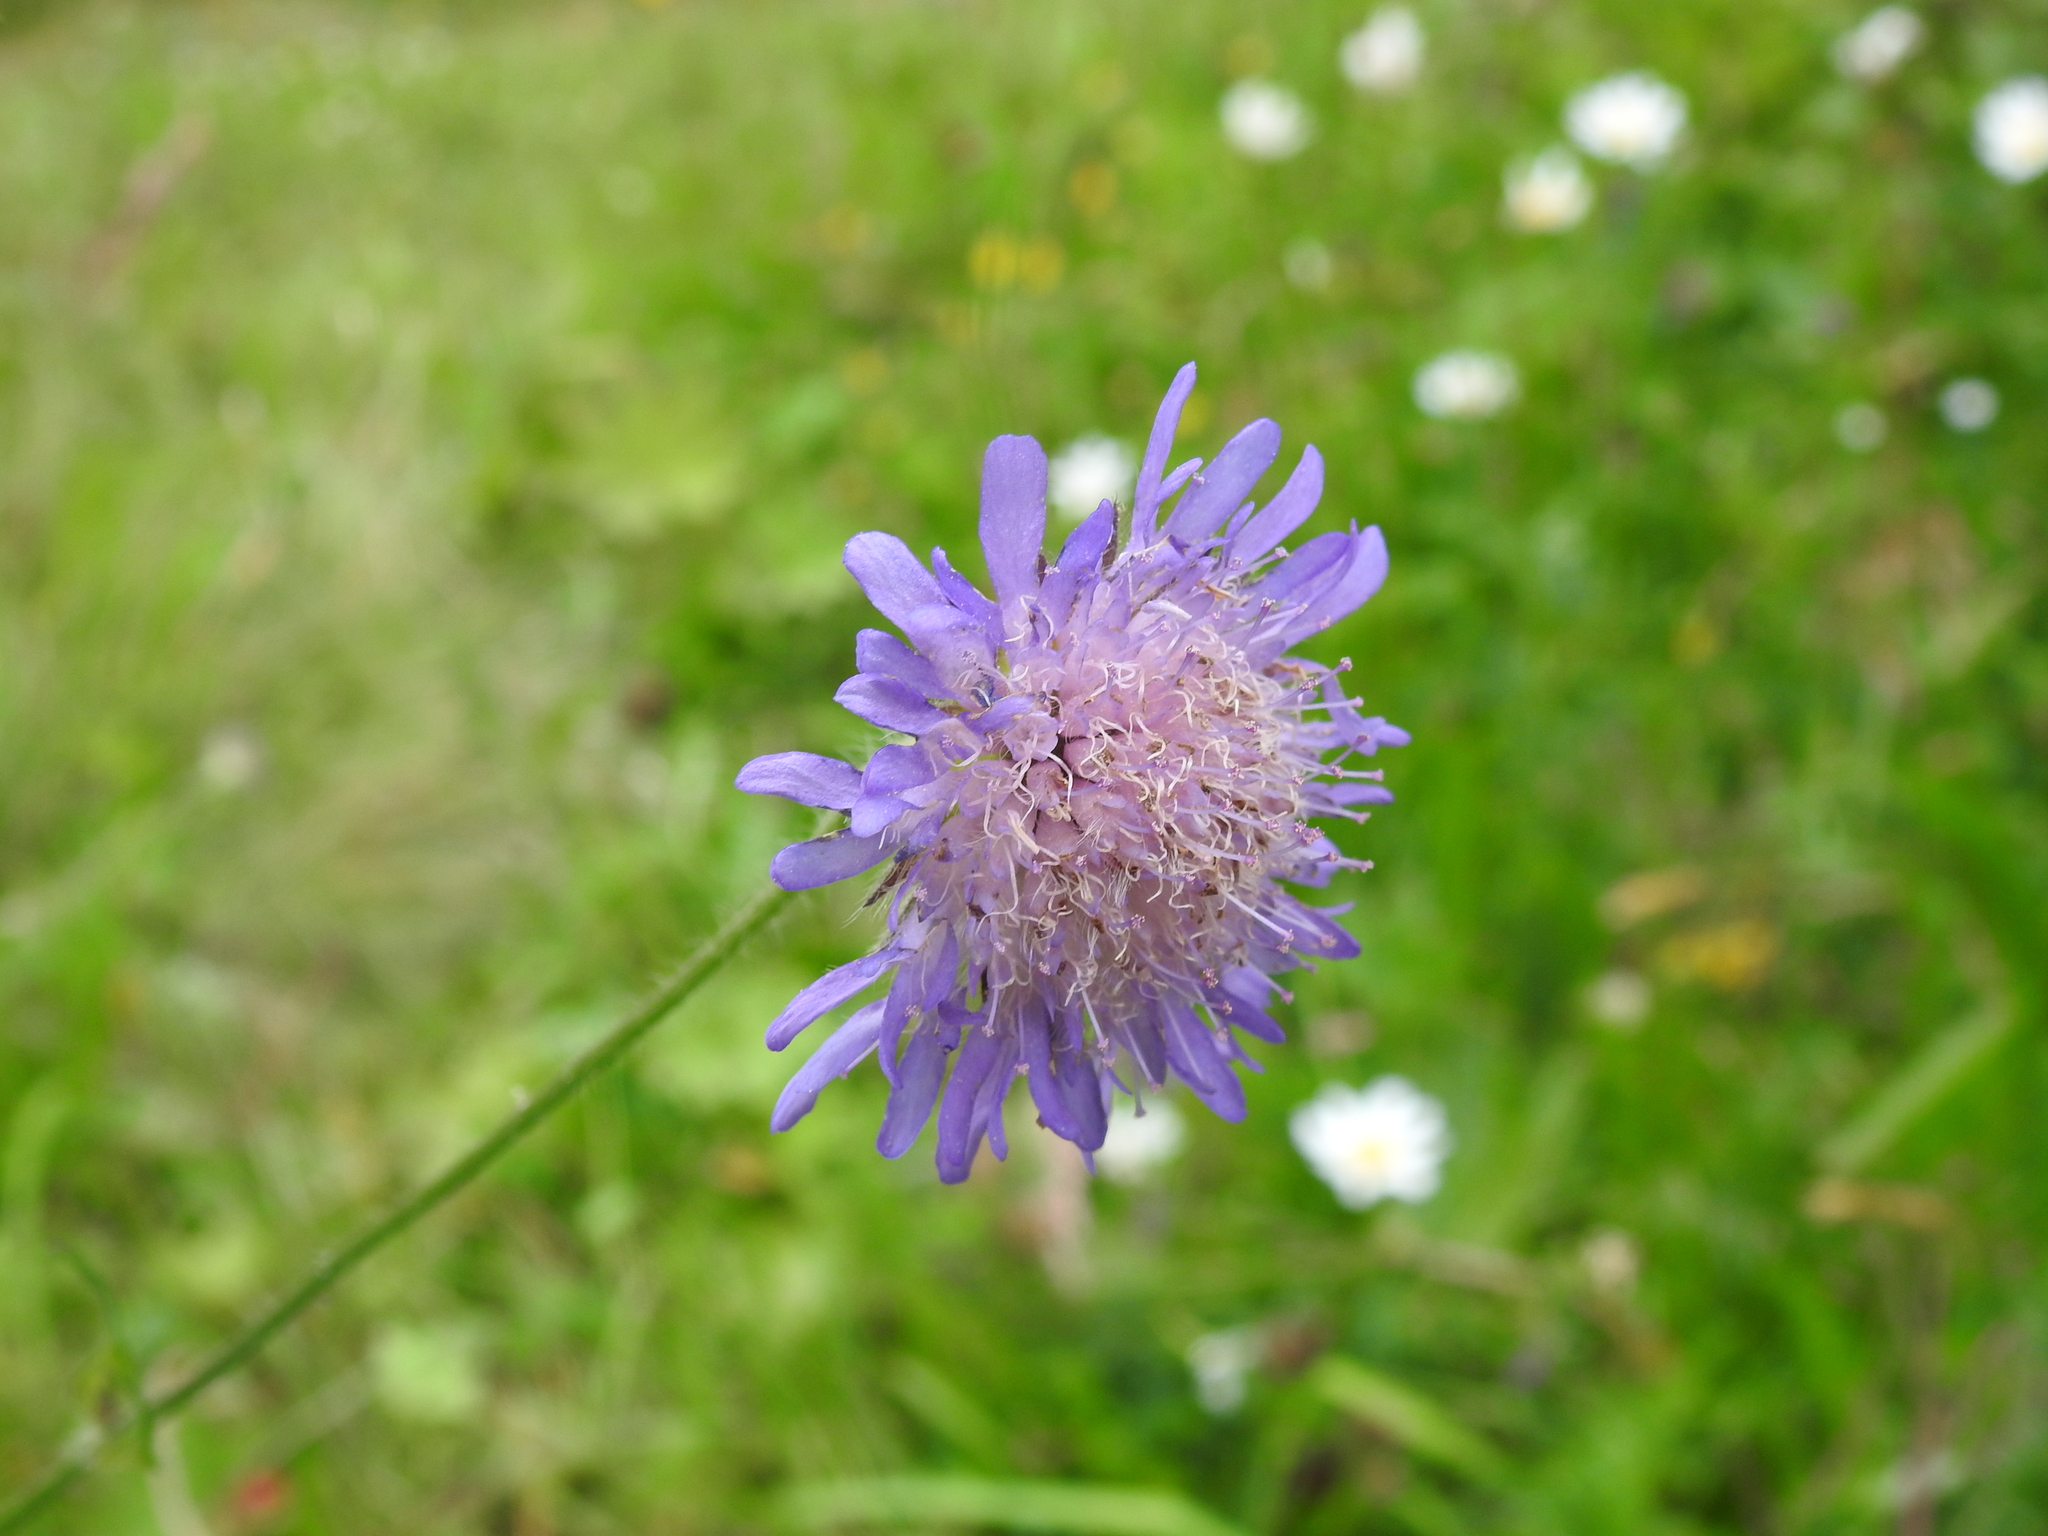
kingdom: Plantae
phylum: Tracheophyta
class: Magnoliopsida
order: Dipsacales
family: Caprifoliaceae
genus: Knautia
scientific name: Knautia arvensis
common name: Field scabiosa
